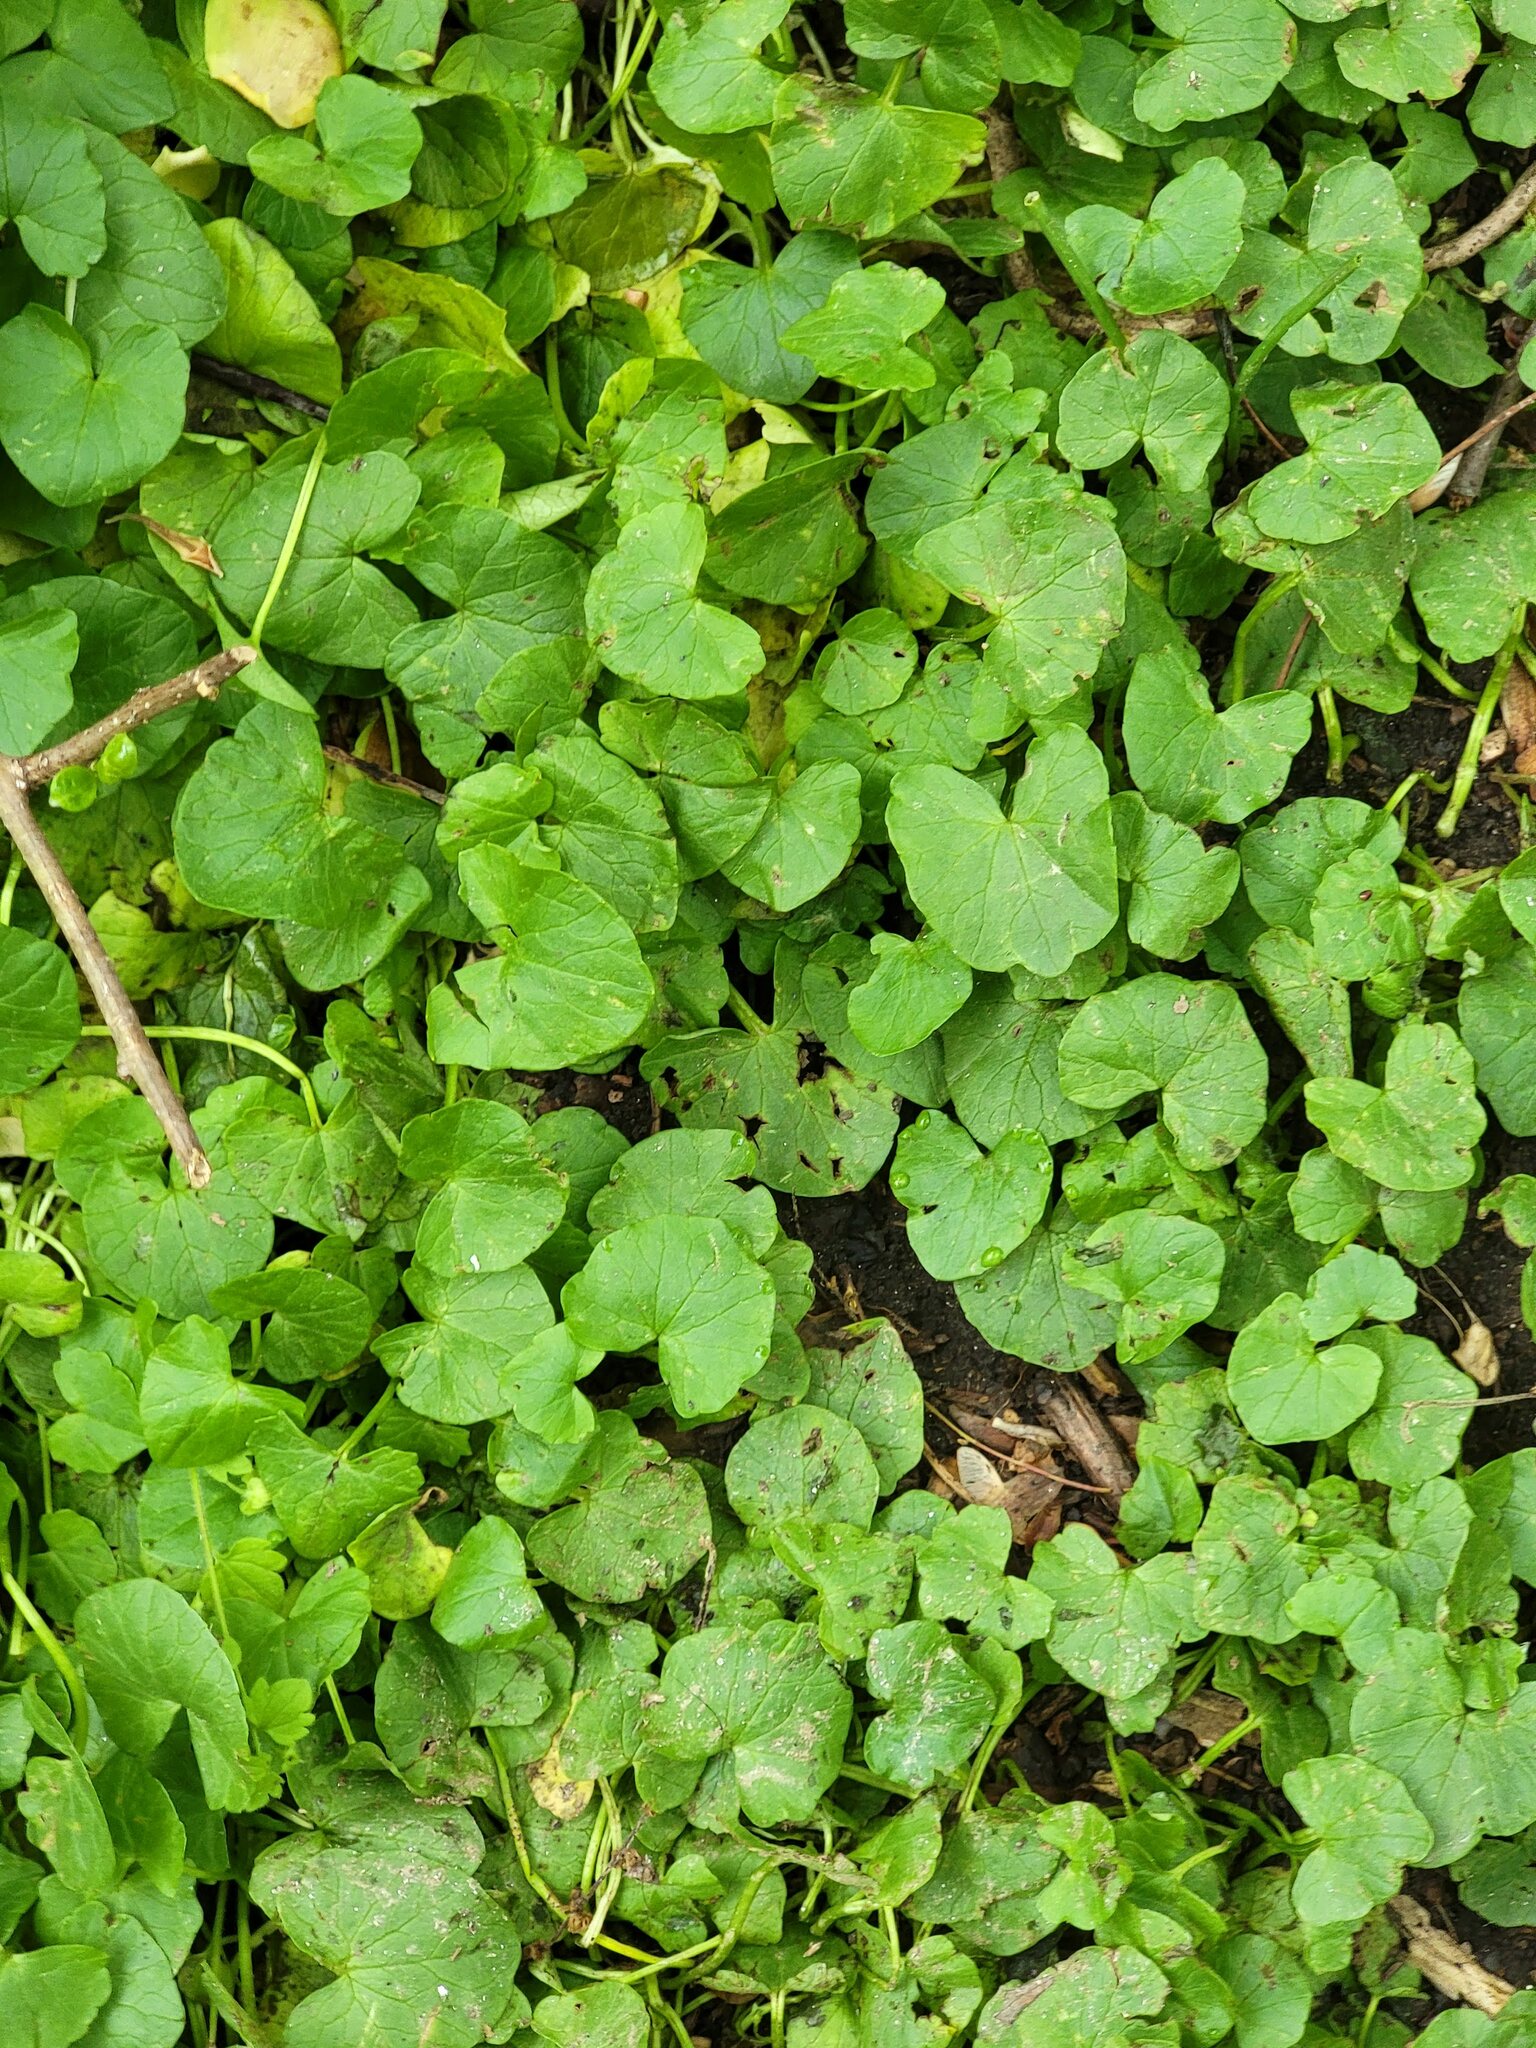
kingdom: Plantae
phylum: Tracheophyta
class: Magnoliopsida
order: Ranunculales
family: Ranunculaceae
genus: Ficaria
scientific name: Ficaria verna
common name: Lesser celandine
